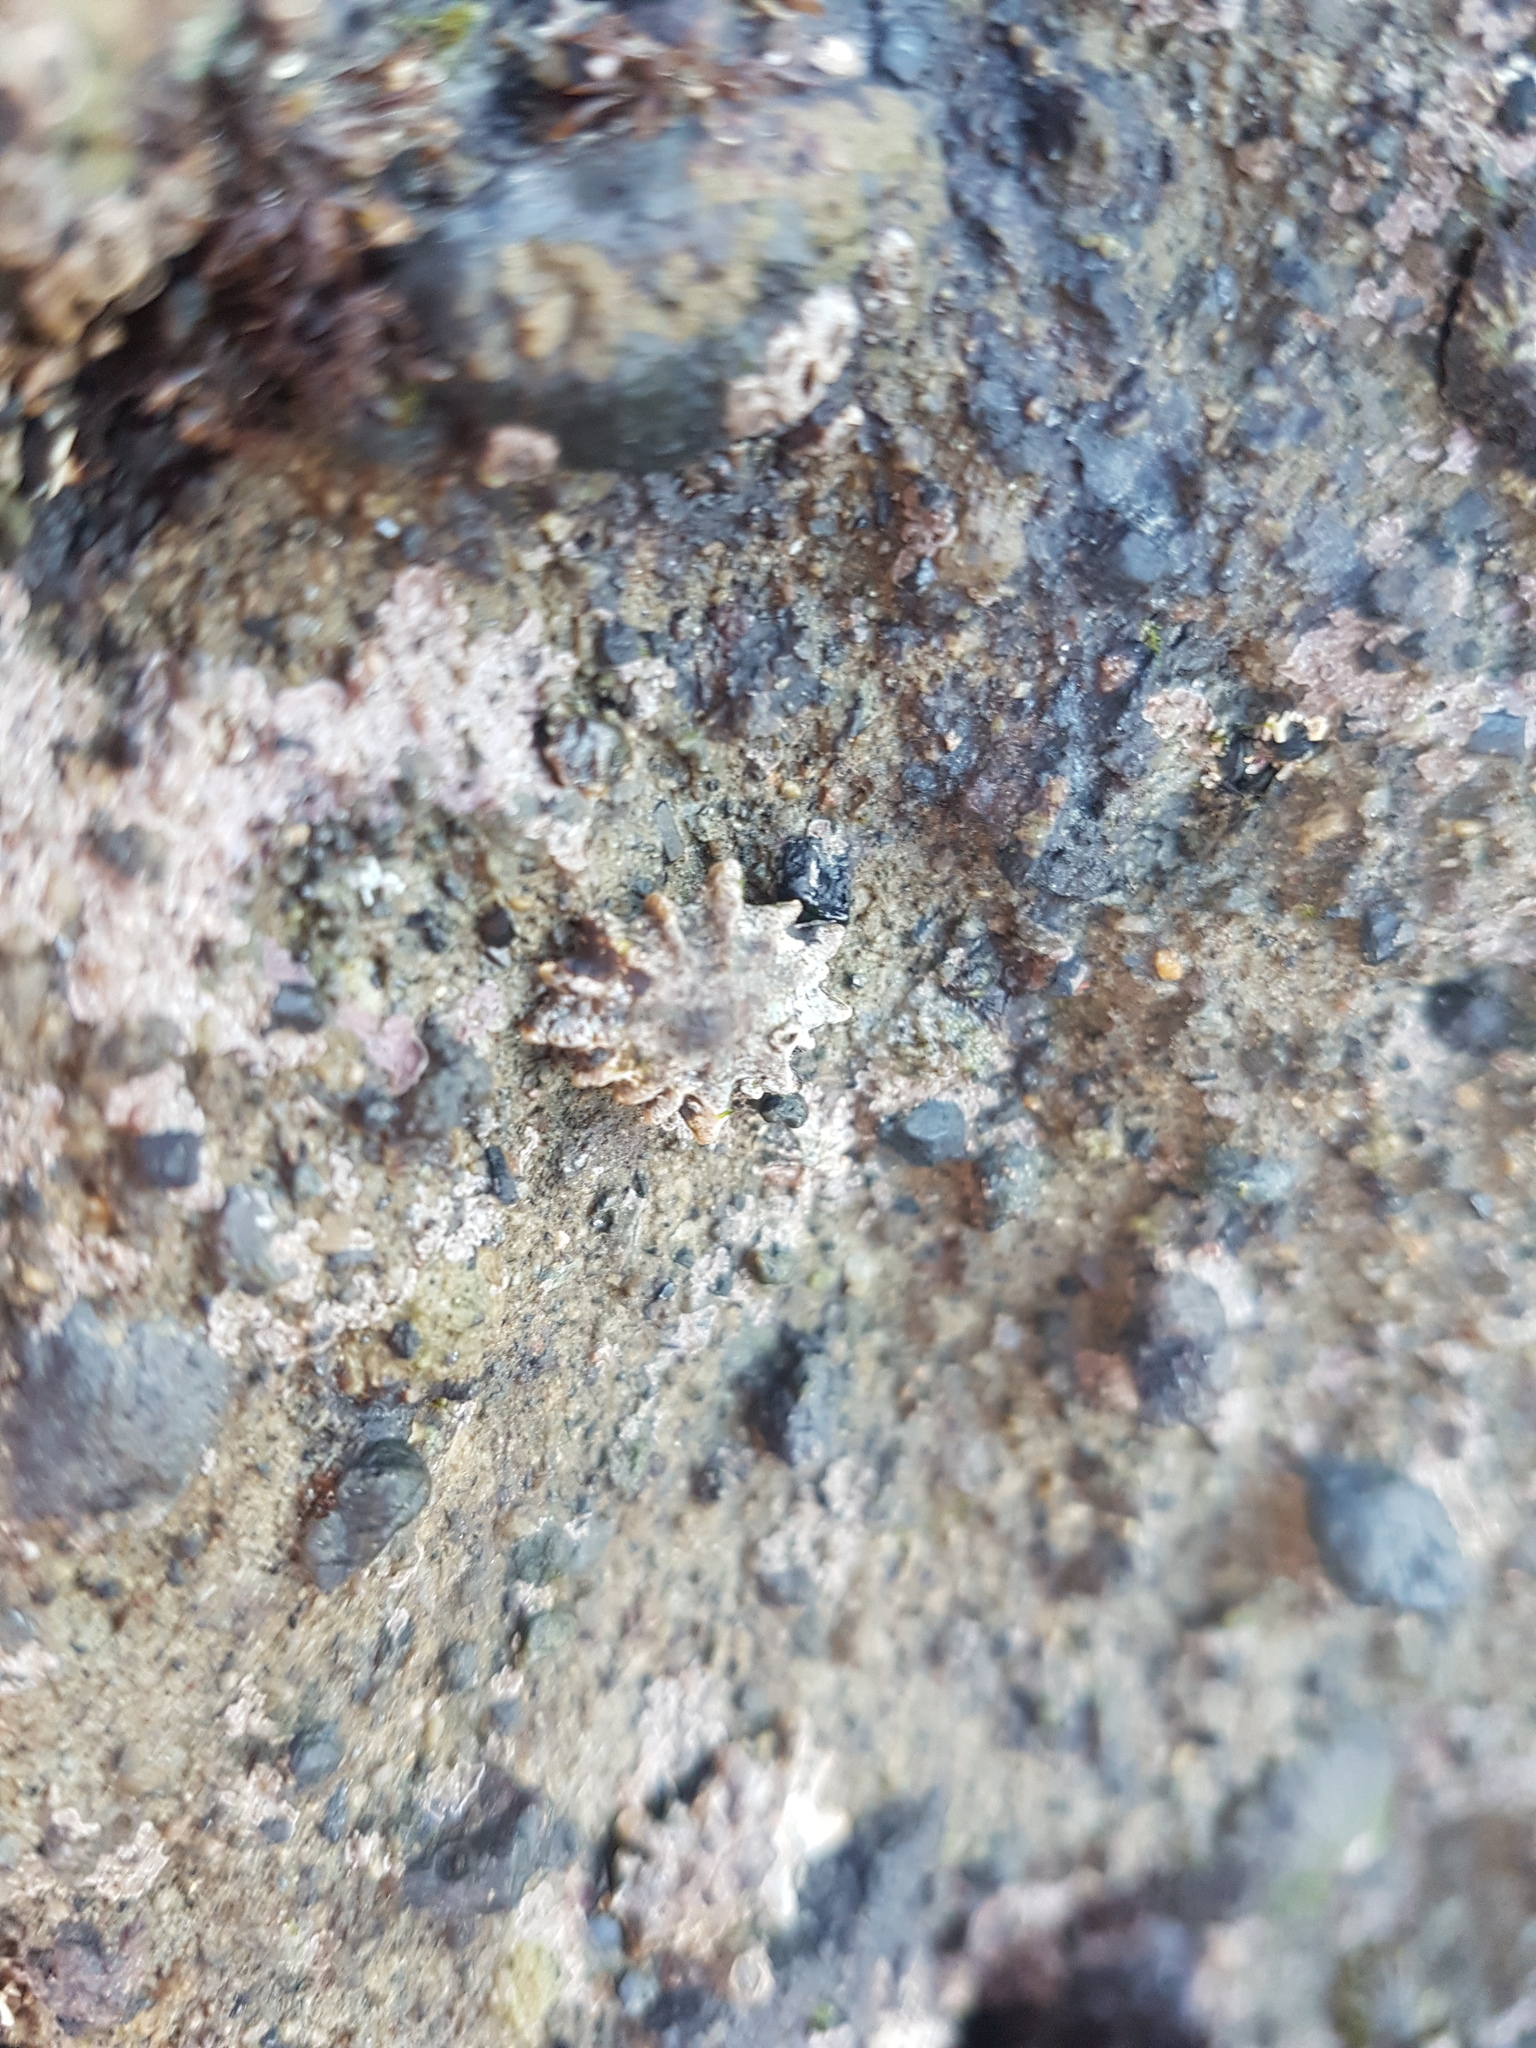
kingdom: Animalia
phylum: Mollusca
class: Gastropoda
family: Lottiidae
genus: Patelloida
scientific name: Patelloida corticata
